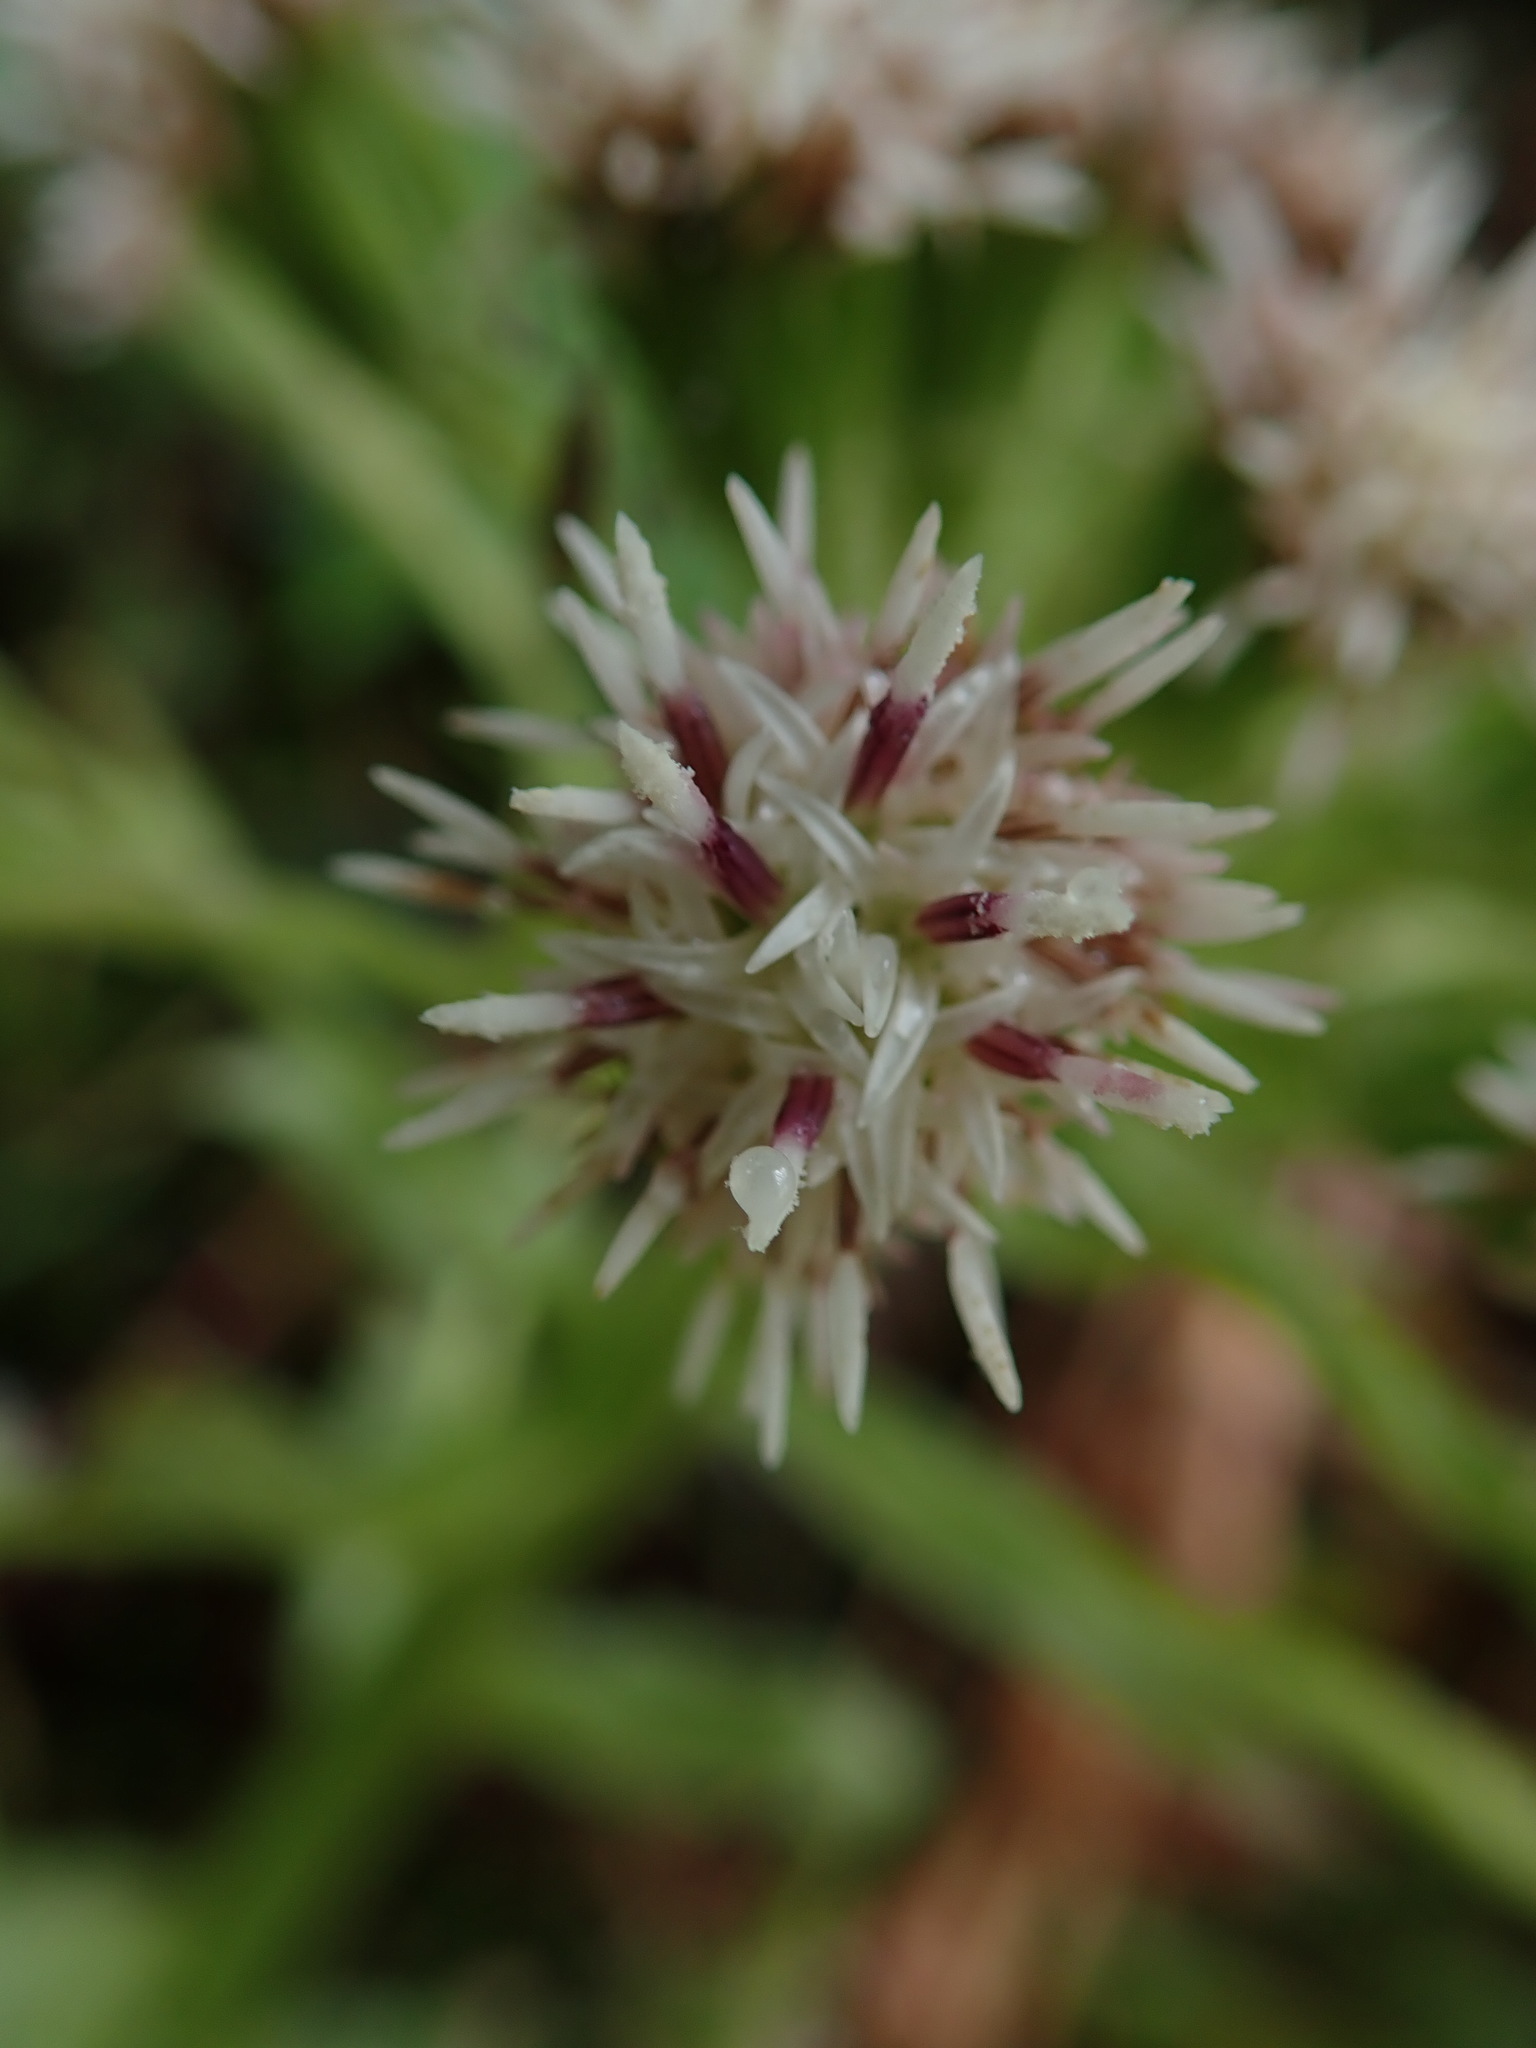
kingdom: Plantae
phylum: Tracheophyta
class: Magnoliopsida
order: Asterales
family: Asteraceae
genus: Petasites
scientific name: Petasites frigidus
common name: Arctic butterbur
